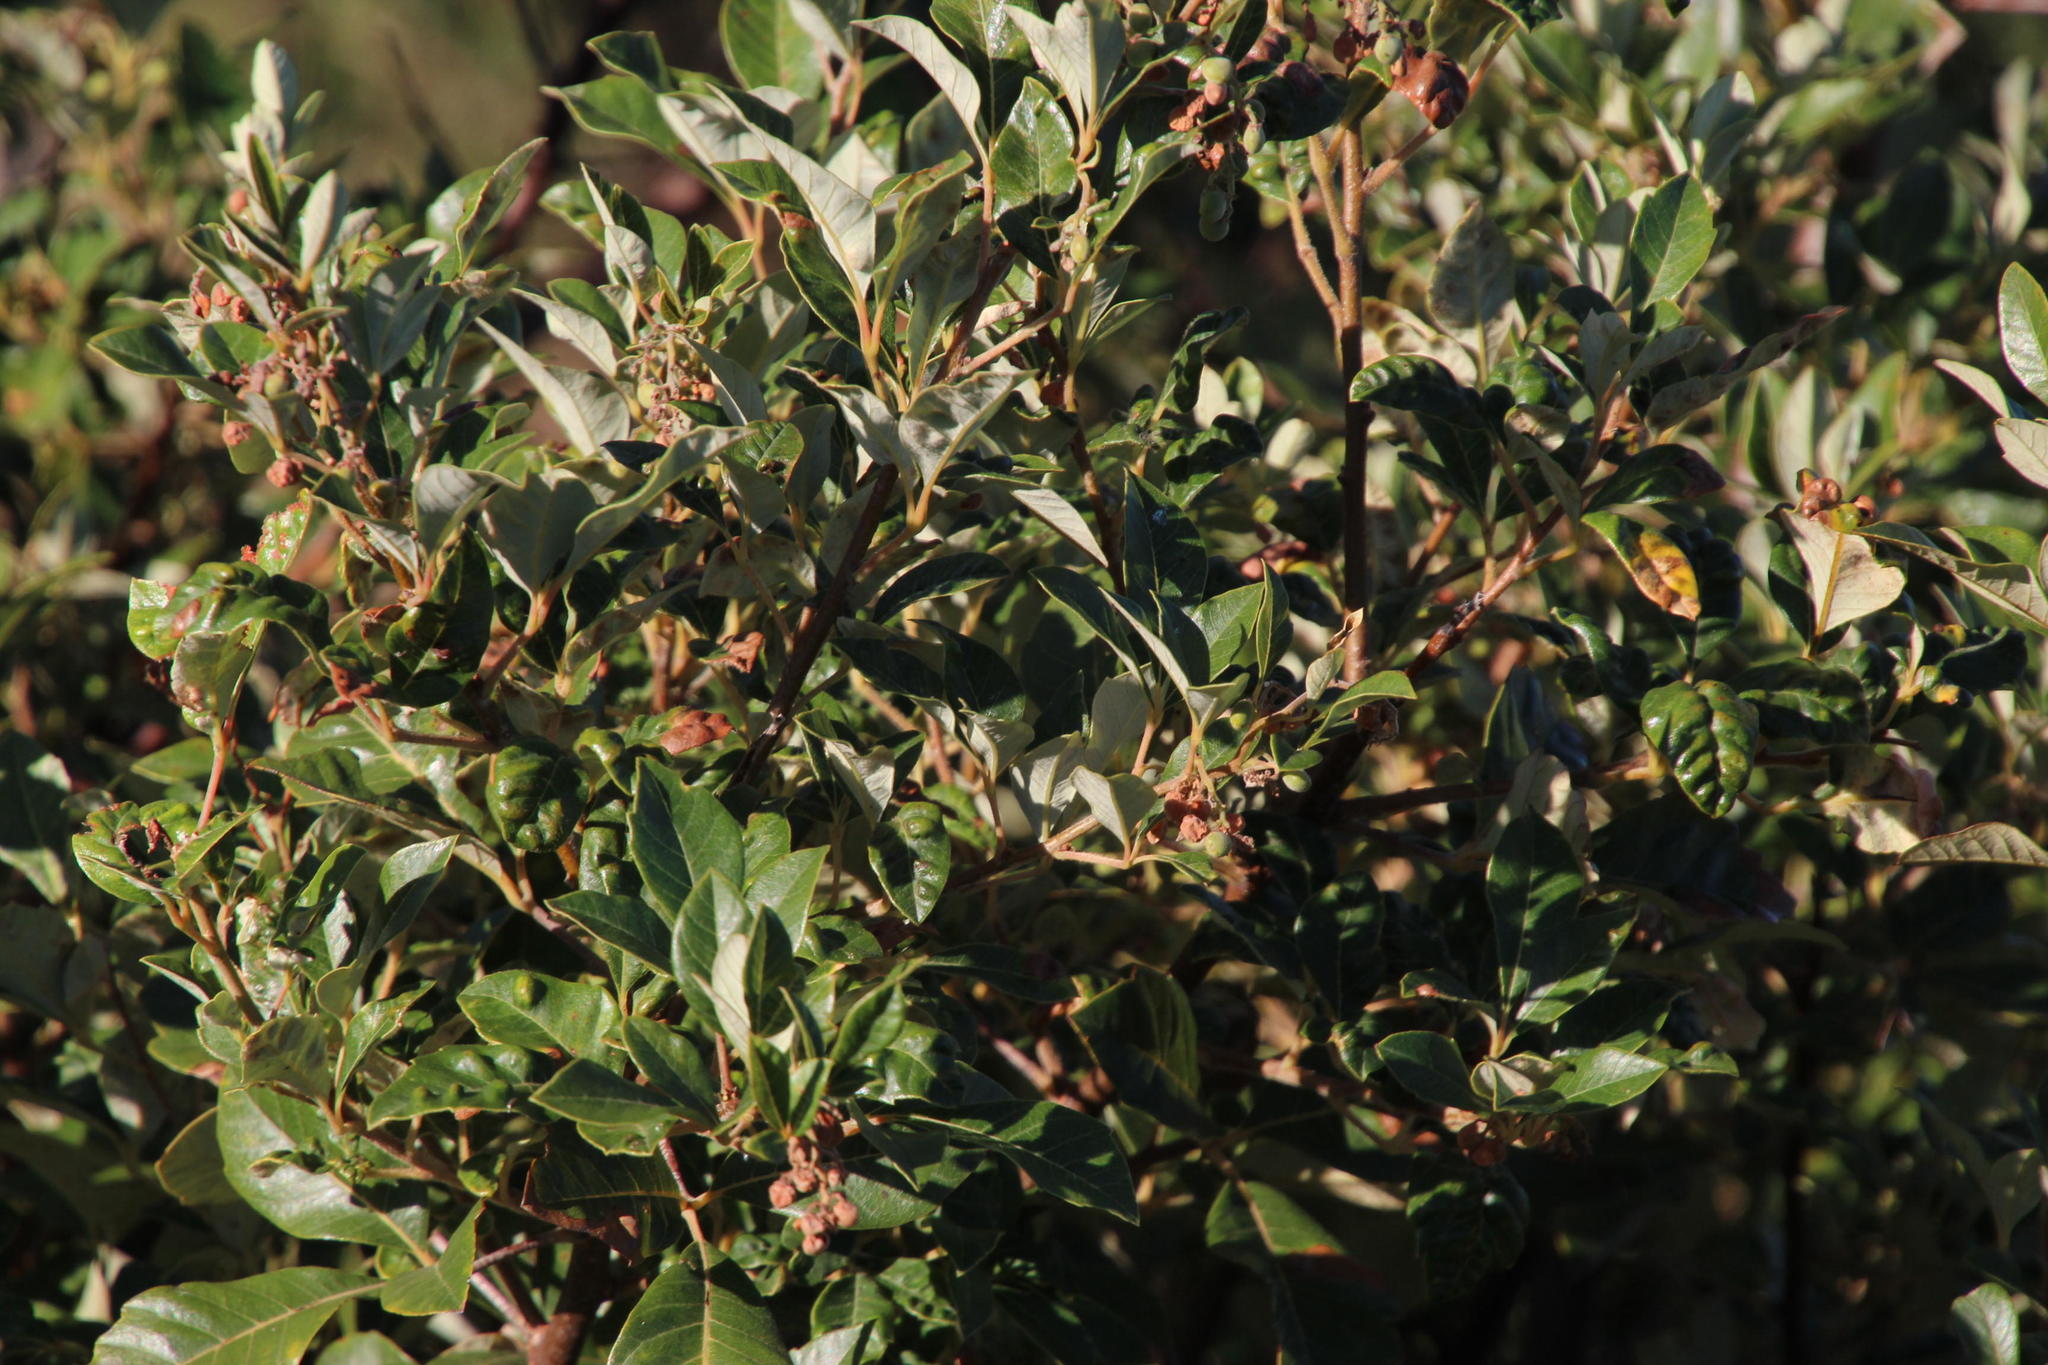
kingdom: Plantae
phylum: Tracheophyta
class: Magnoliopsida
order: Sapindales
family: Anacardiaceae
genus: Searsia
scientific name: Searsia tomentosa
